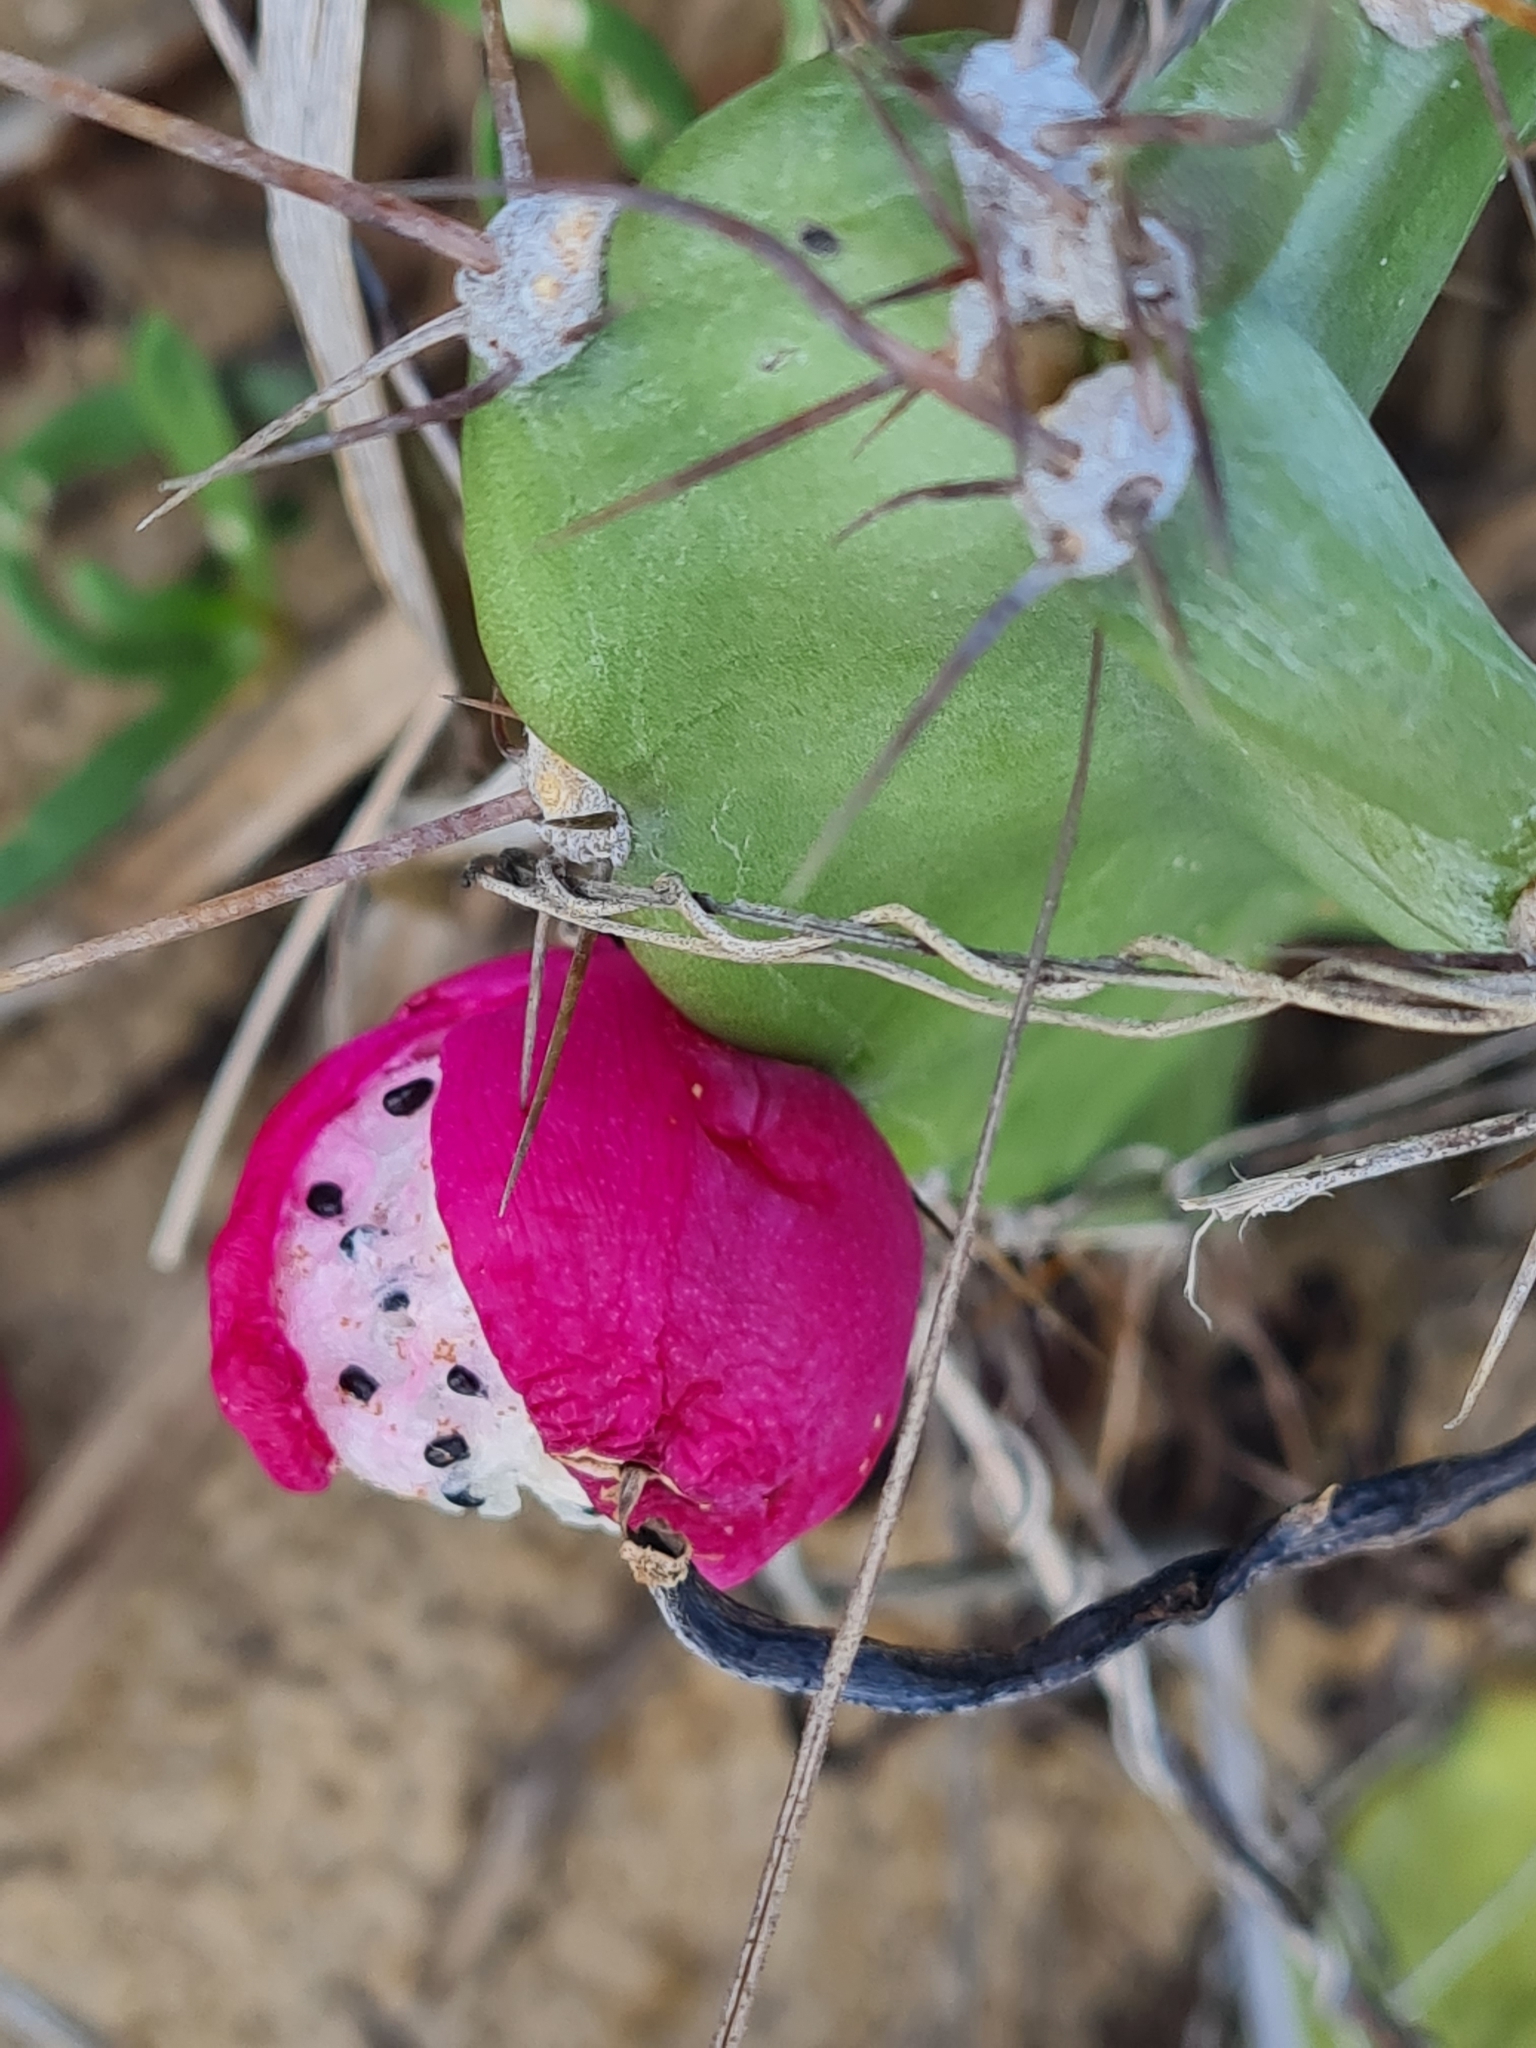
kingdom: Plantae
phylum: Tracheophyta
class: Magnoliopsida
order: Caryophyllales
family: Cactaceae
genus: Cereus
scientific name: Cereus fernambucensis
